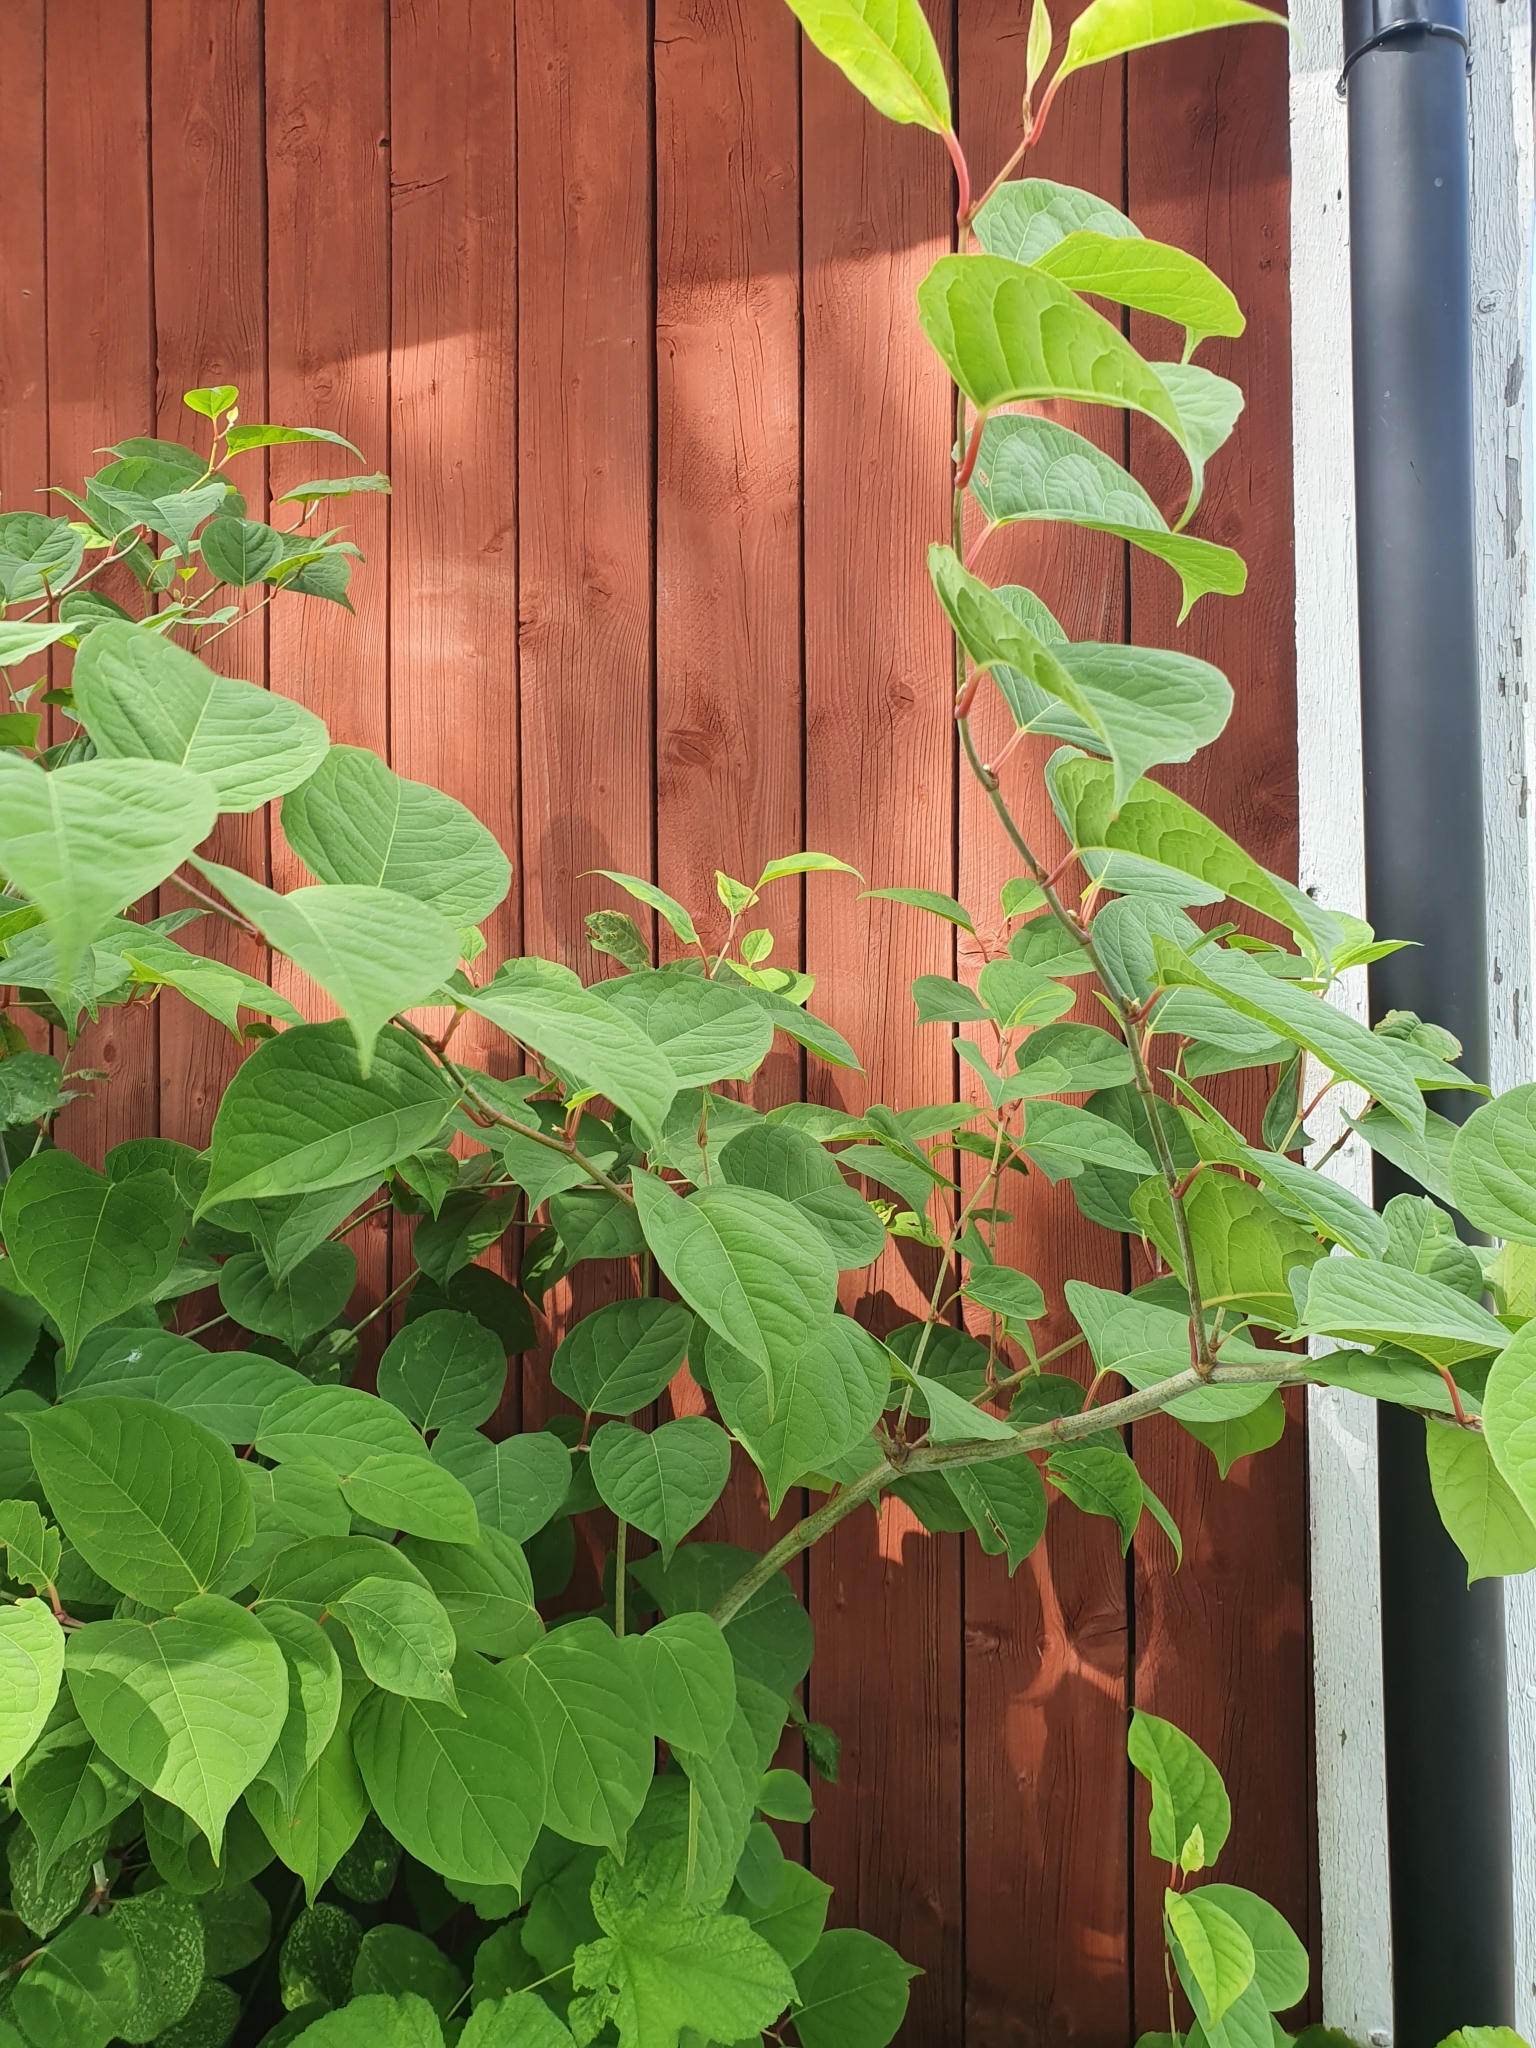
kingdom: Plantae
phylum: Tracheophyta
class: Magnoliopsida
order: Caryophyllales
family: Polygonaceae
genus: Reynoutria
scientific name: Reynoutria japonica
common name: Japanese knotweed
